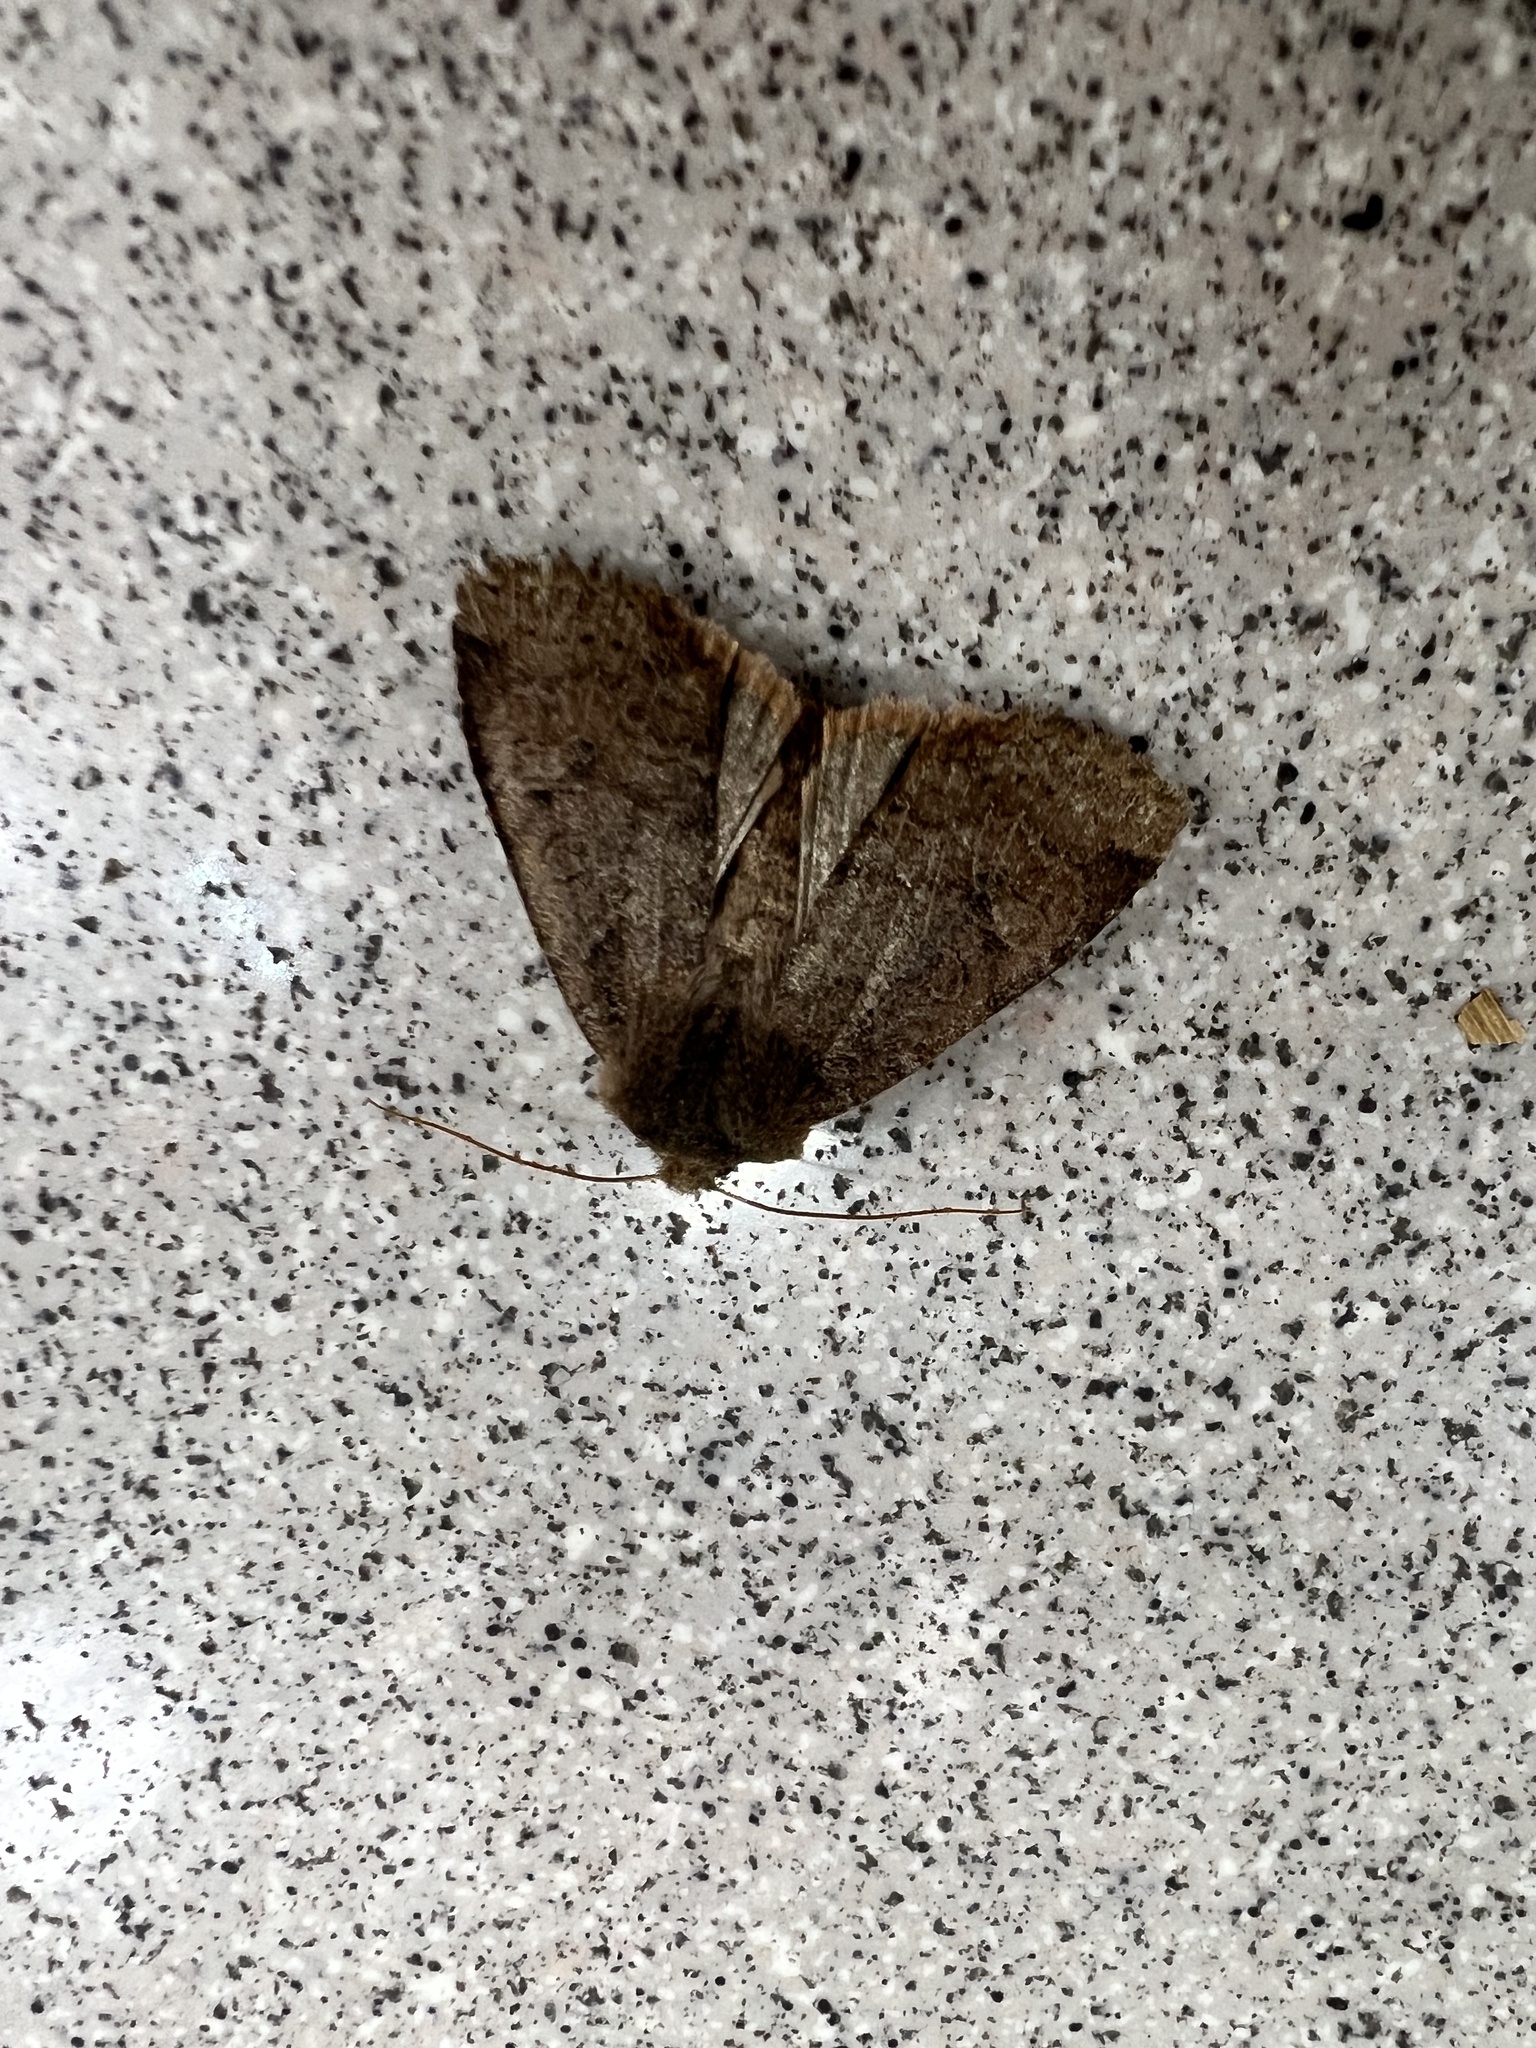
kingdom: Animalia
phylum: Arthropoda
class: Insecta
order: Lepidoptera
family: Noctuidae
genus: Conistra
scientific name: Conistra vaccinii
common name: Chestnut
